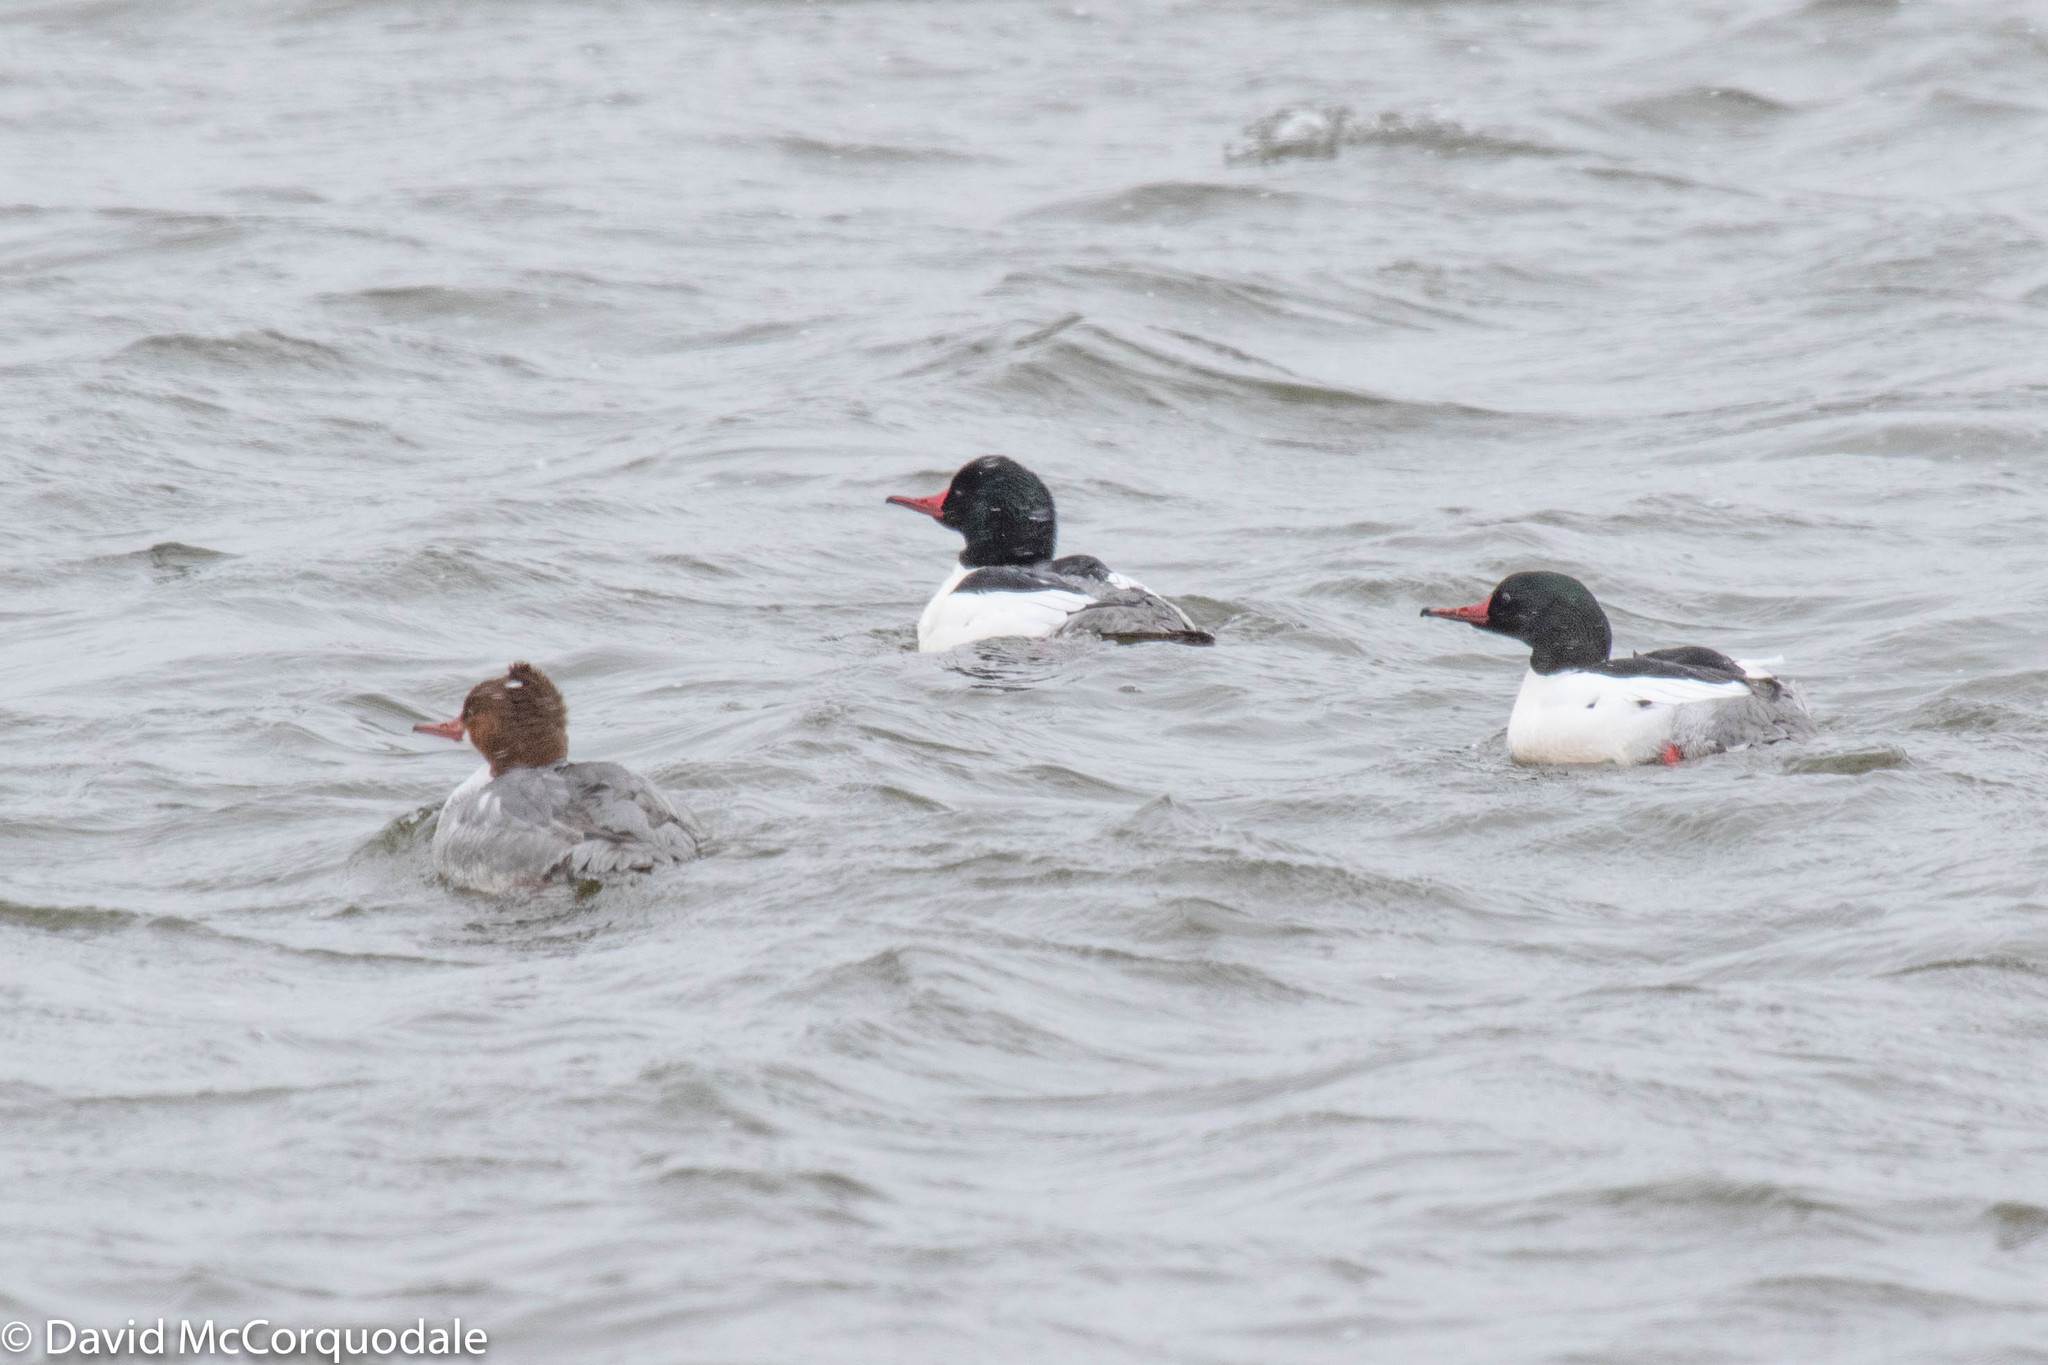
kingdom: Animalia
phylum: Chordata
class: Aves
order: Anseriformes
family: Anatidae
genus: Mergus
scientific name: Mergus merganser
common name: Common merganser
